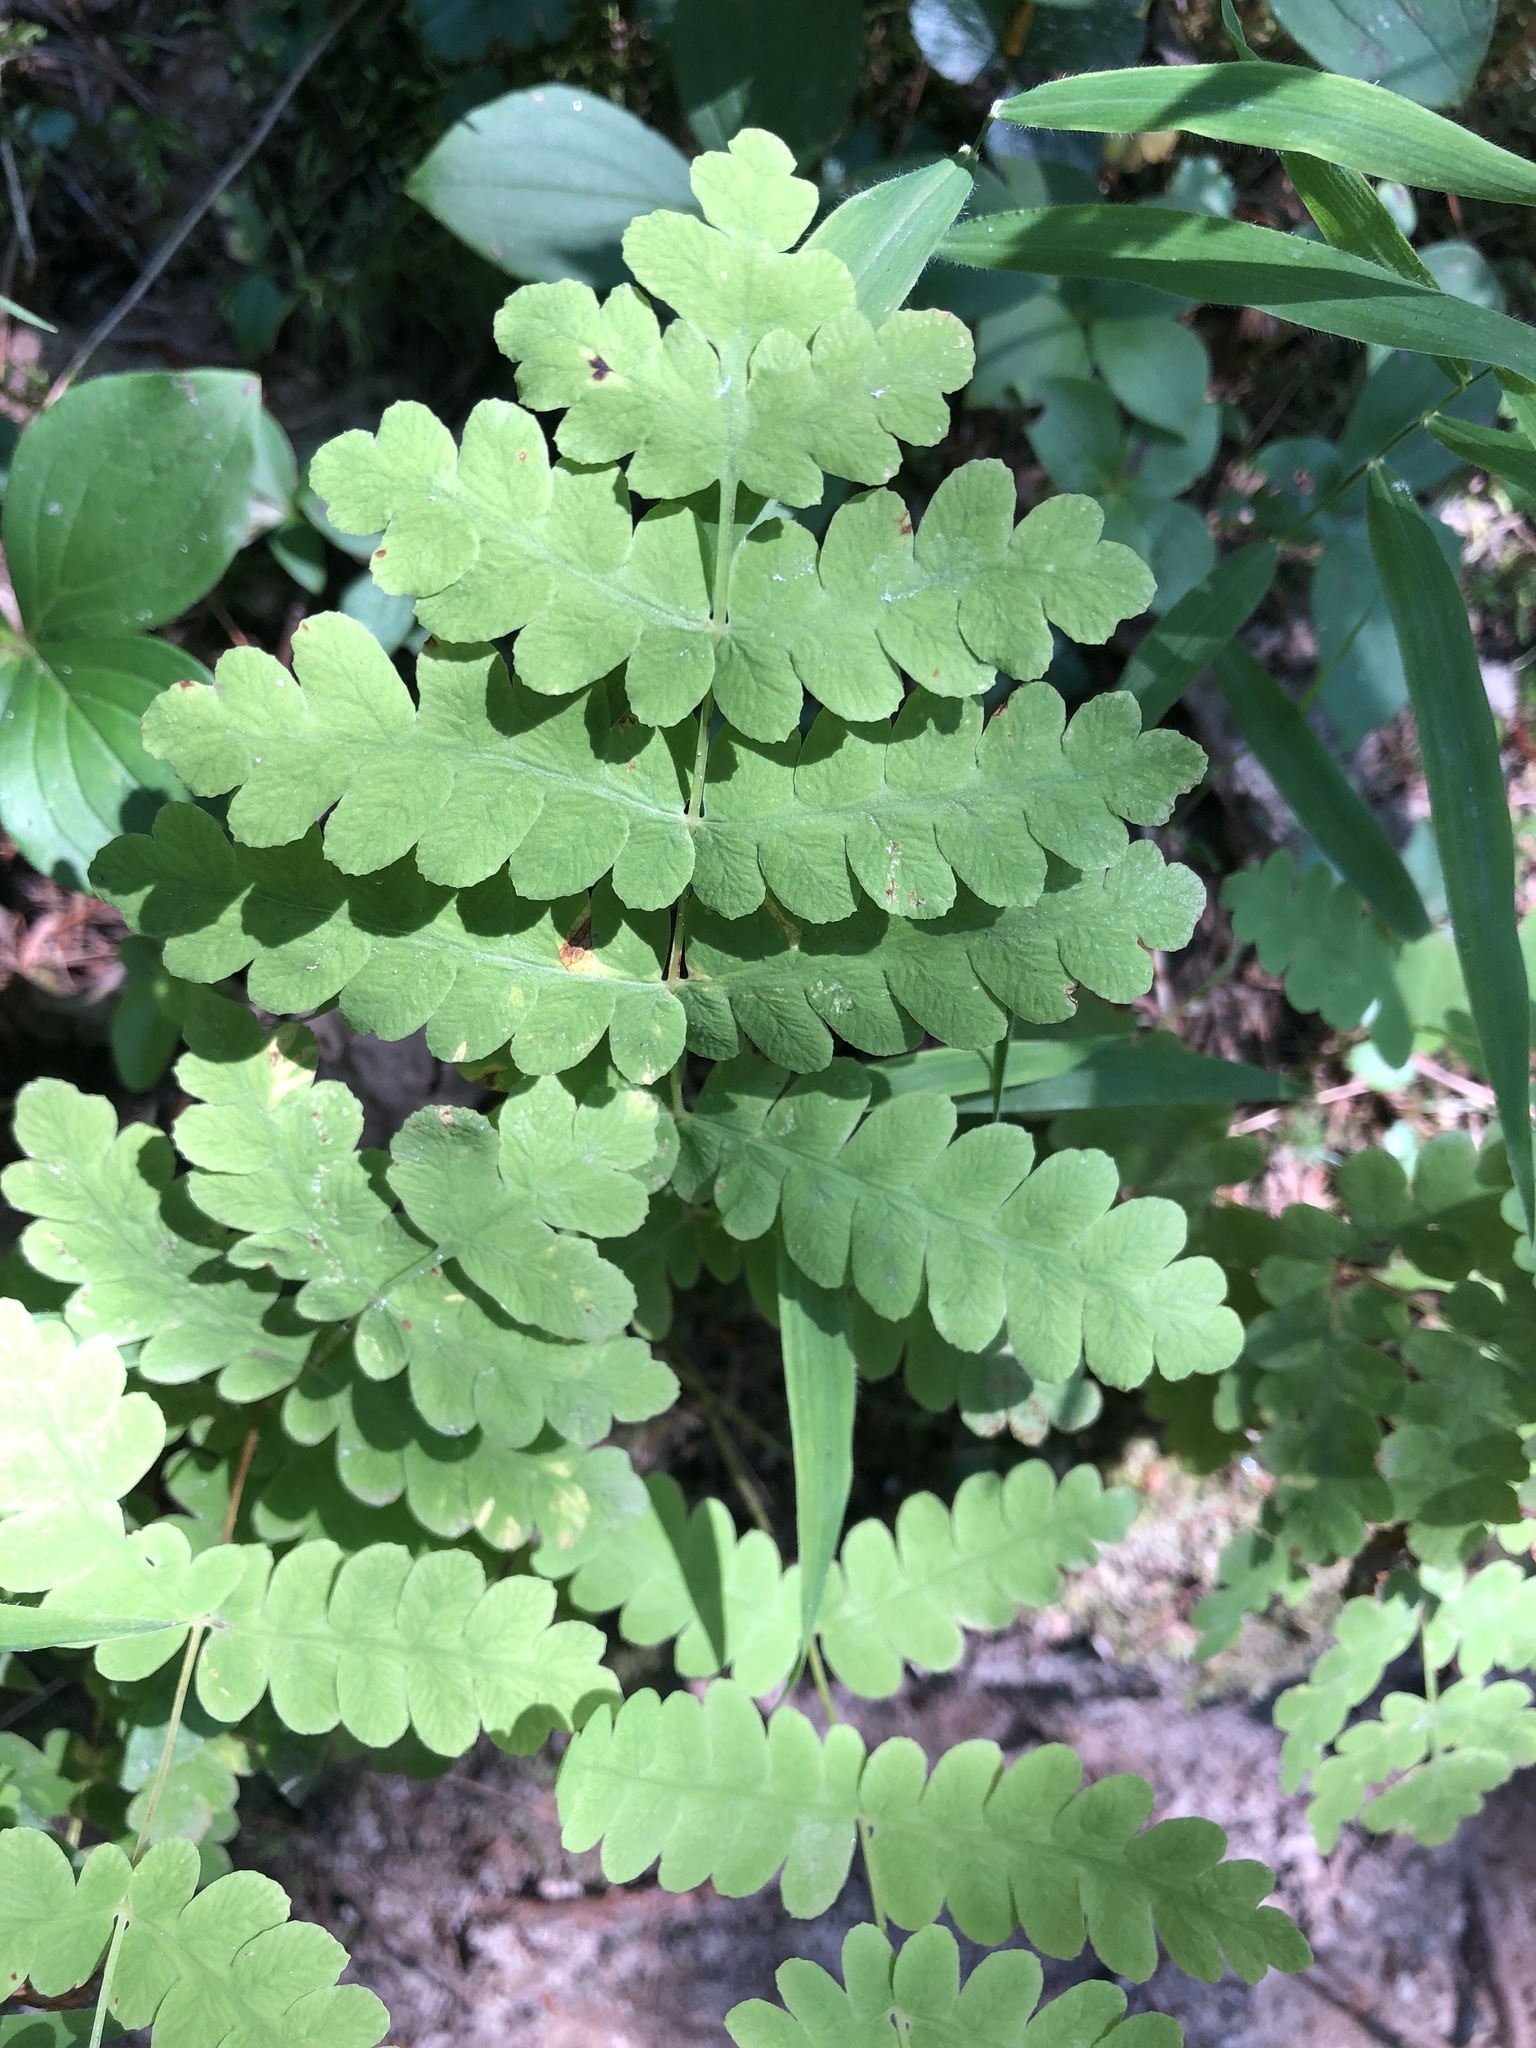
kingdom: Plantae
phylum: Tracheophyta
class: Polypodiopsida
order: Osmundales
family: Osmundaceae
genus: Claytosmunda
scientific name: Claytosmunda claytoniana
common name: Clayton's fern
